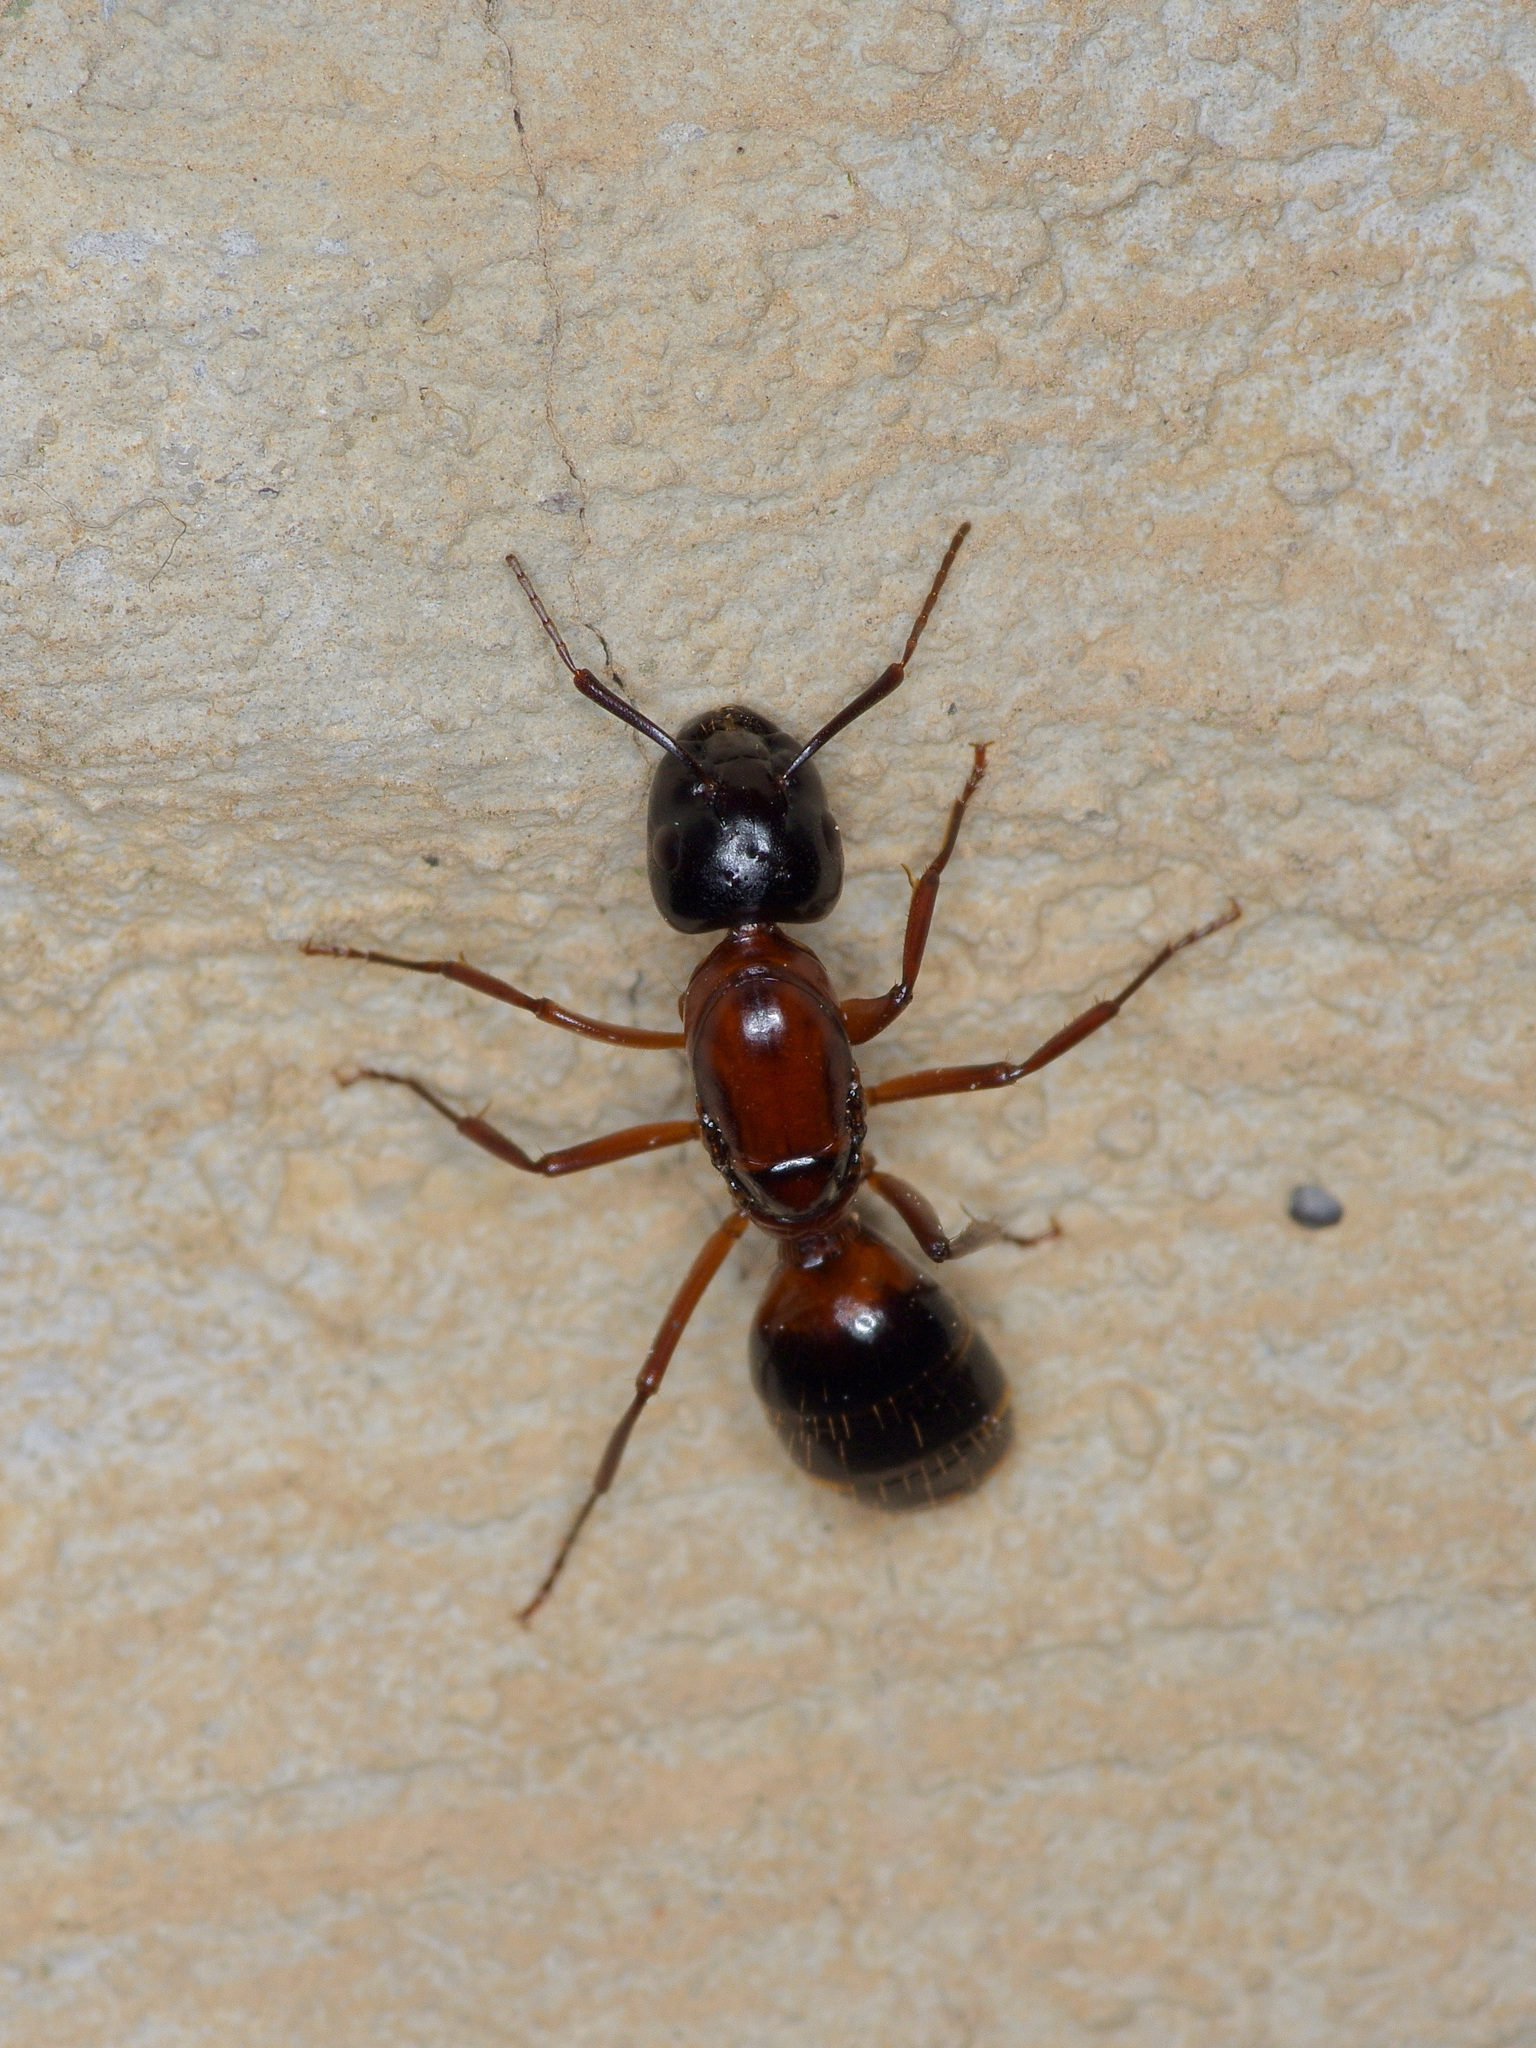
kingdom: Animalia
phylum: Arthropoda
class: Insecta
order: Hymenoptera
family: Formicidae
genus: Camponotus
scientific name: Camponotus texanus
